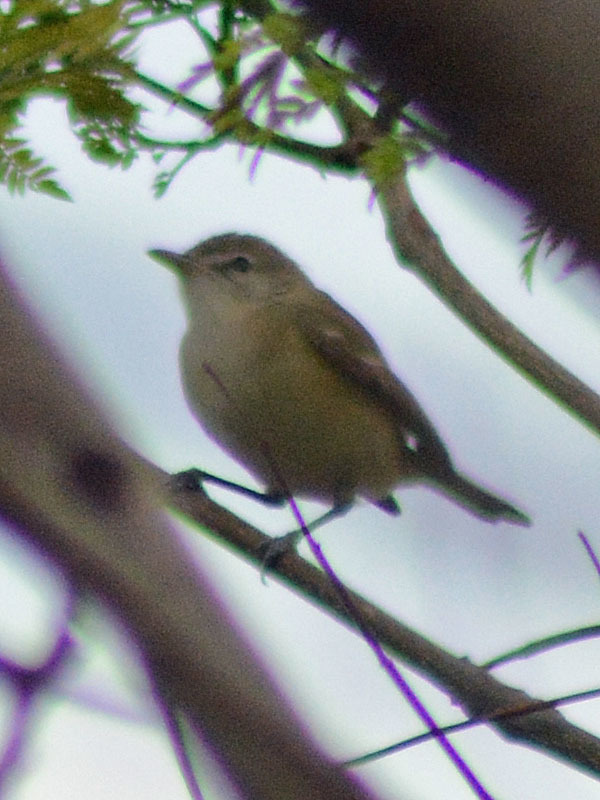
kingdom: Animalia
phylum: Chordata
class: Aves
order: Passeriformes
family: Vireonidae
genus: Vireo
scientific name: Vireo bellii
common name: Bell's vireo
